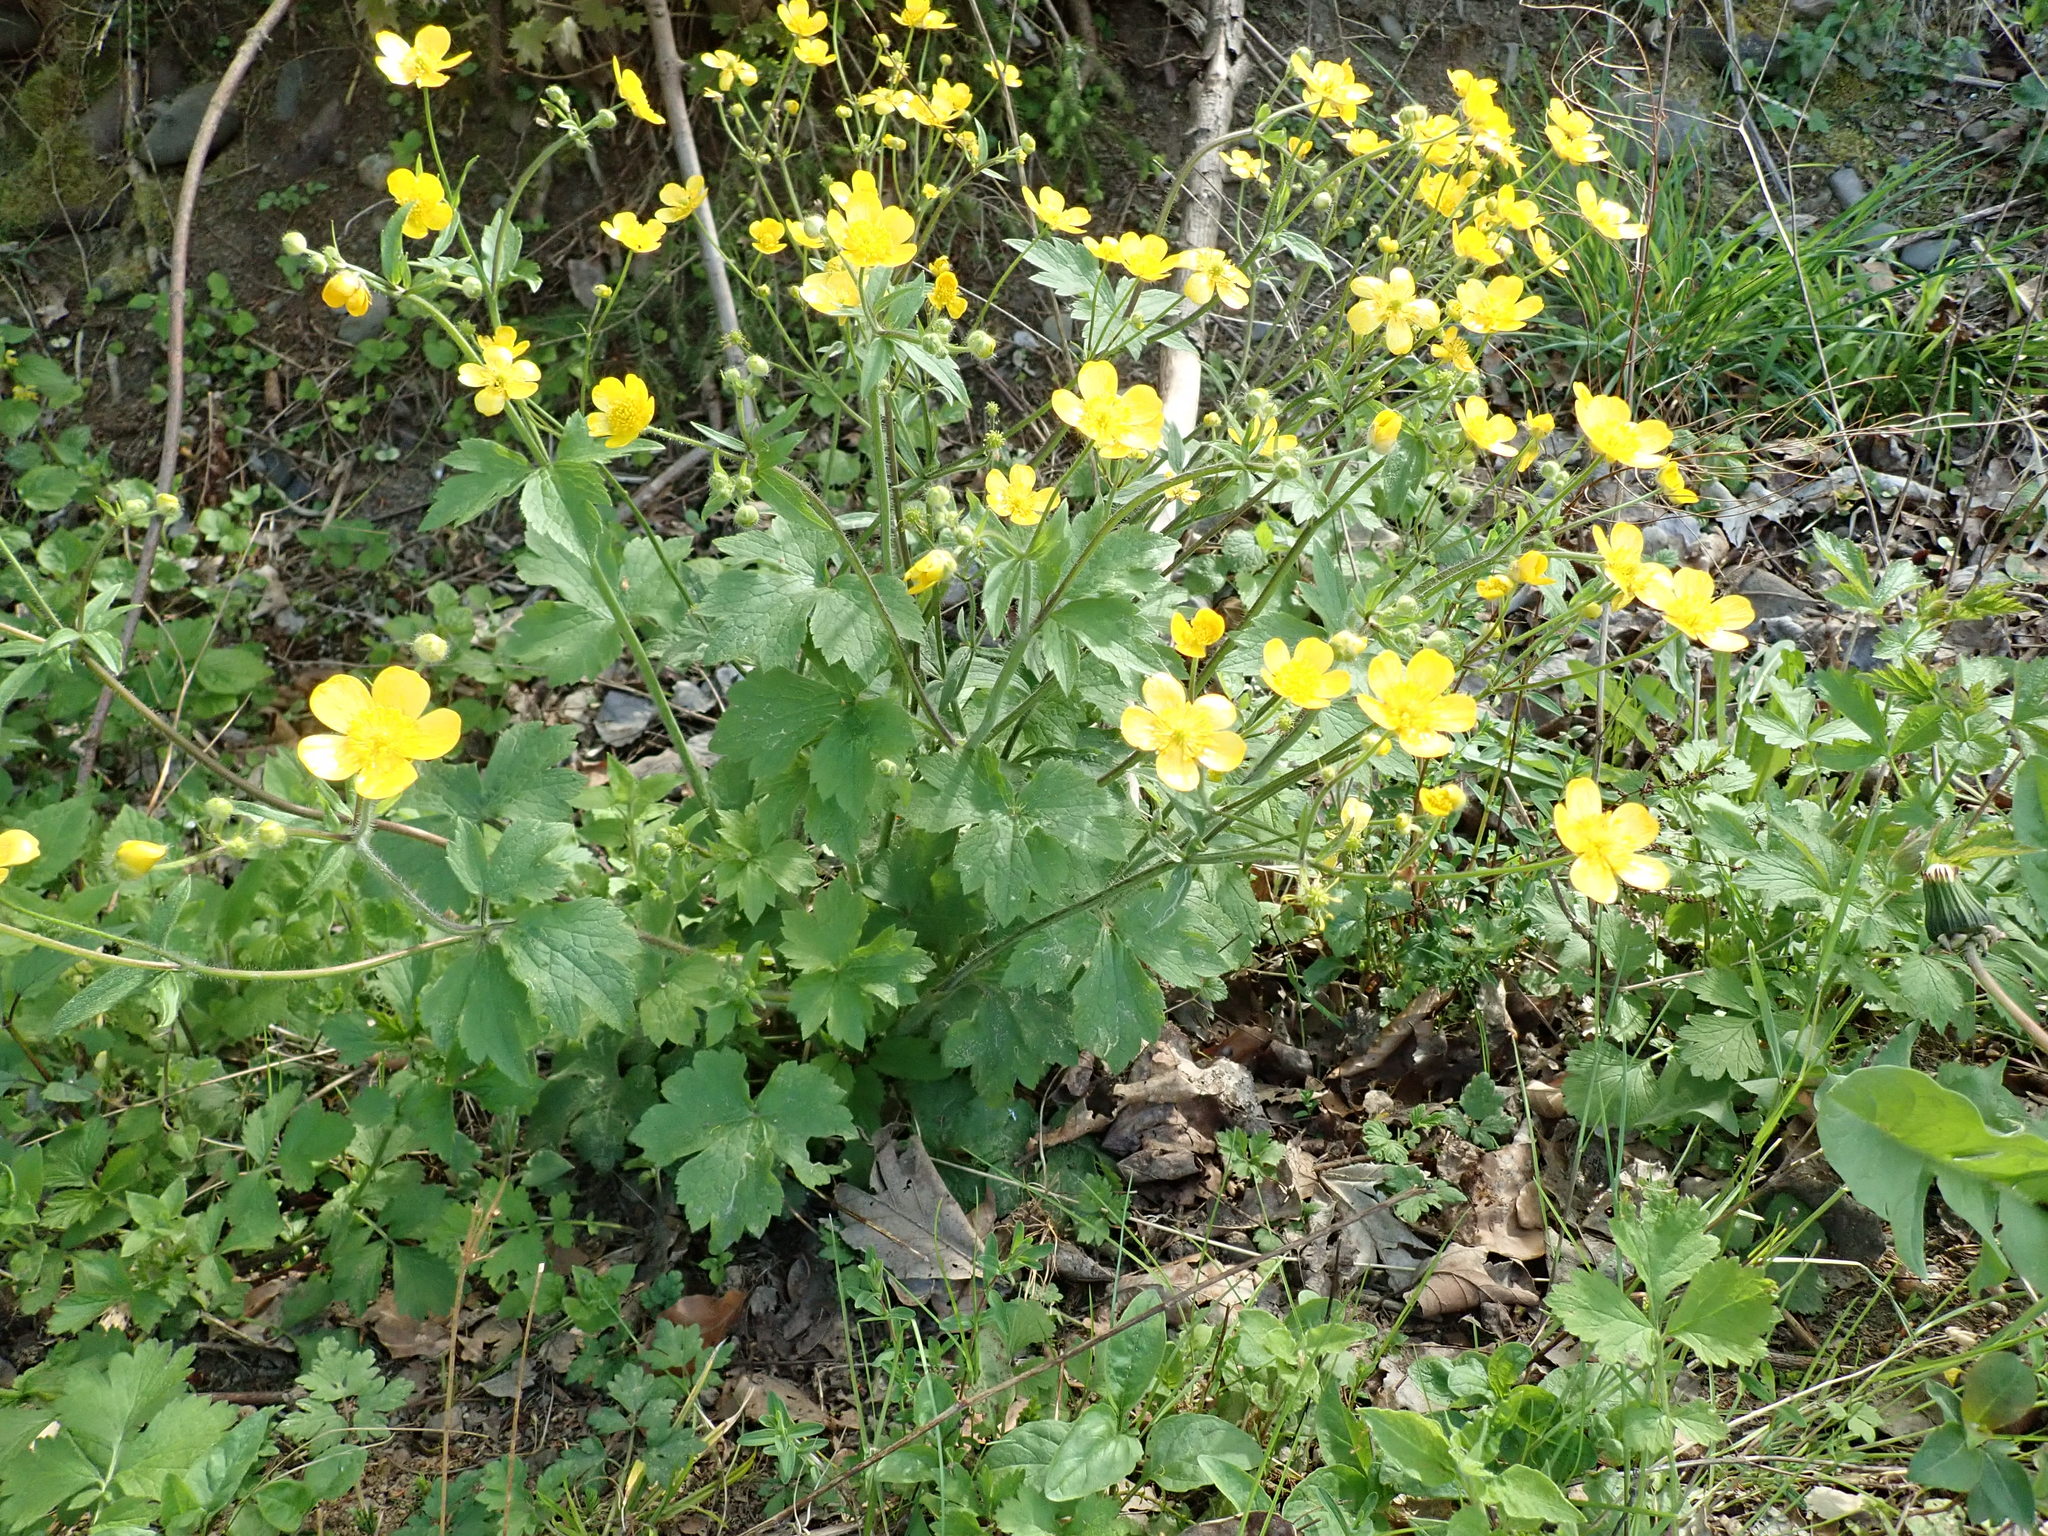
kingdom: Plantae
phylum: Tracheophyta
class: Magnoliopsida
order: Ranunculales
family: Ranunculaceae
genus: Ranunculus
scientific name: Ranunculus lanuginosus
